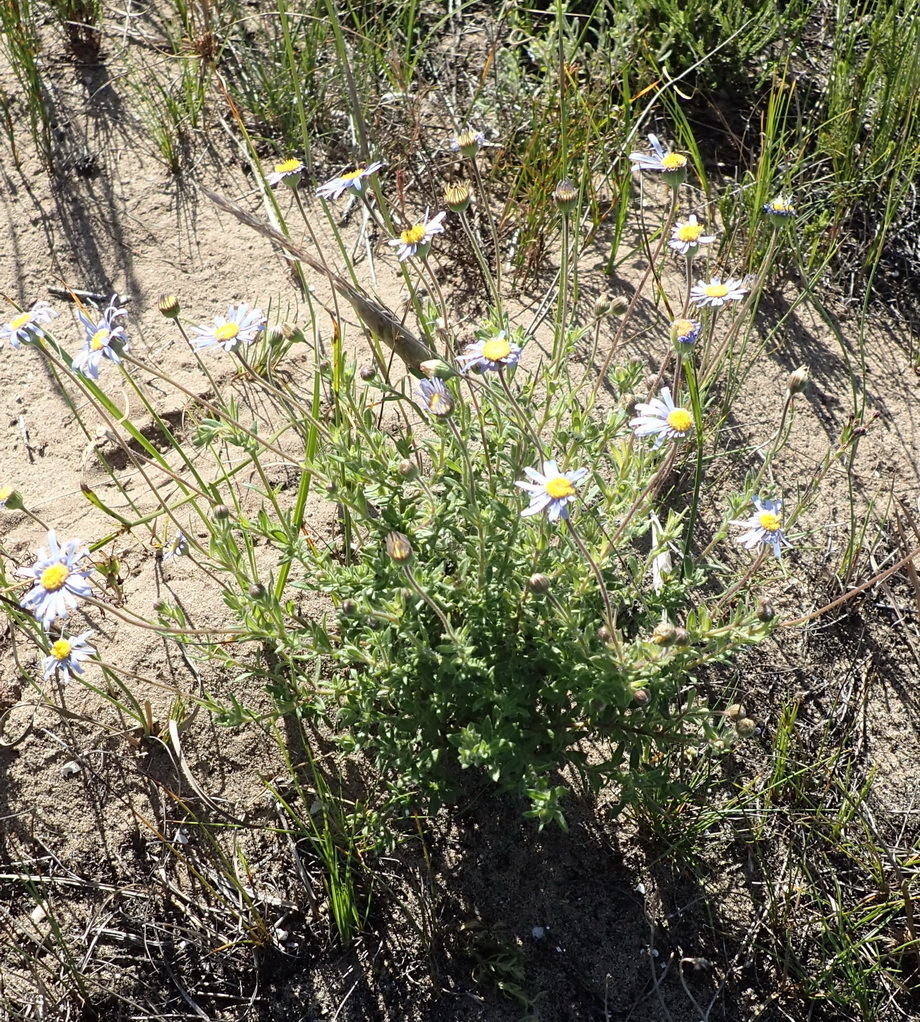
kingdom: Plantae
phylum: Tracheophyta
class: Magnoliopsida
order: Asterales
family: Asteraceae
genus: Felicia
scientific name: Felicia amoena
